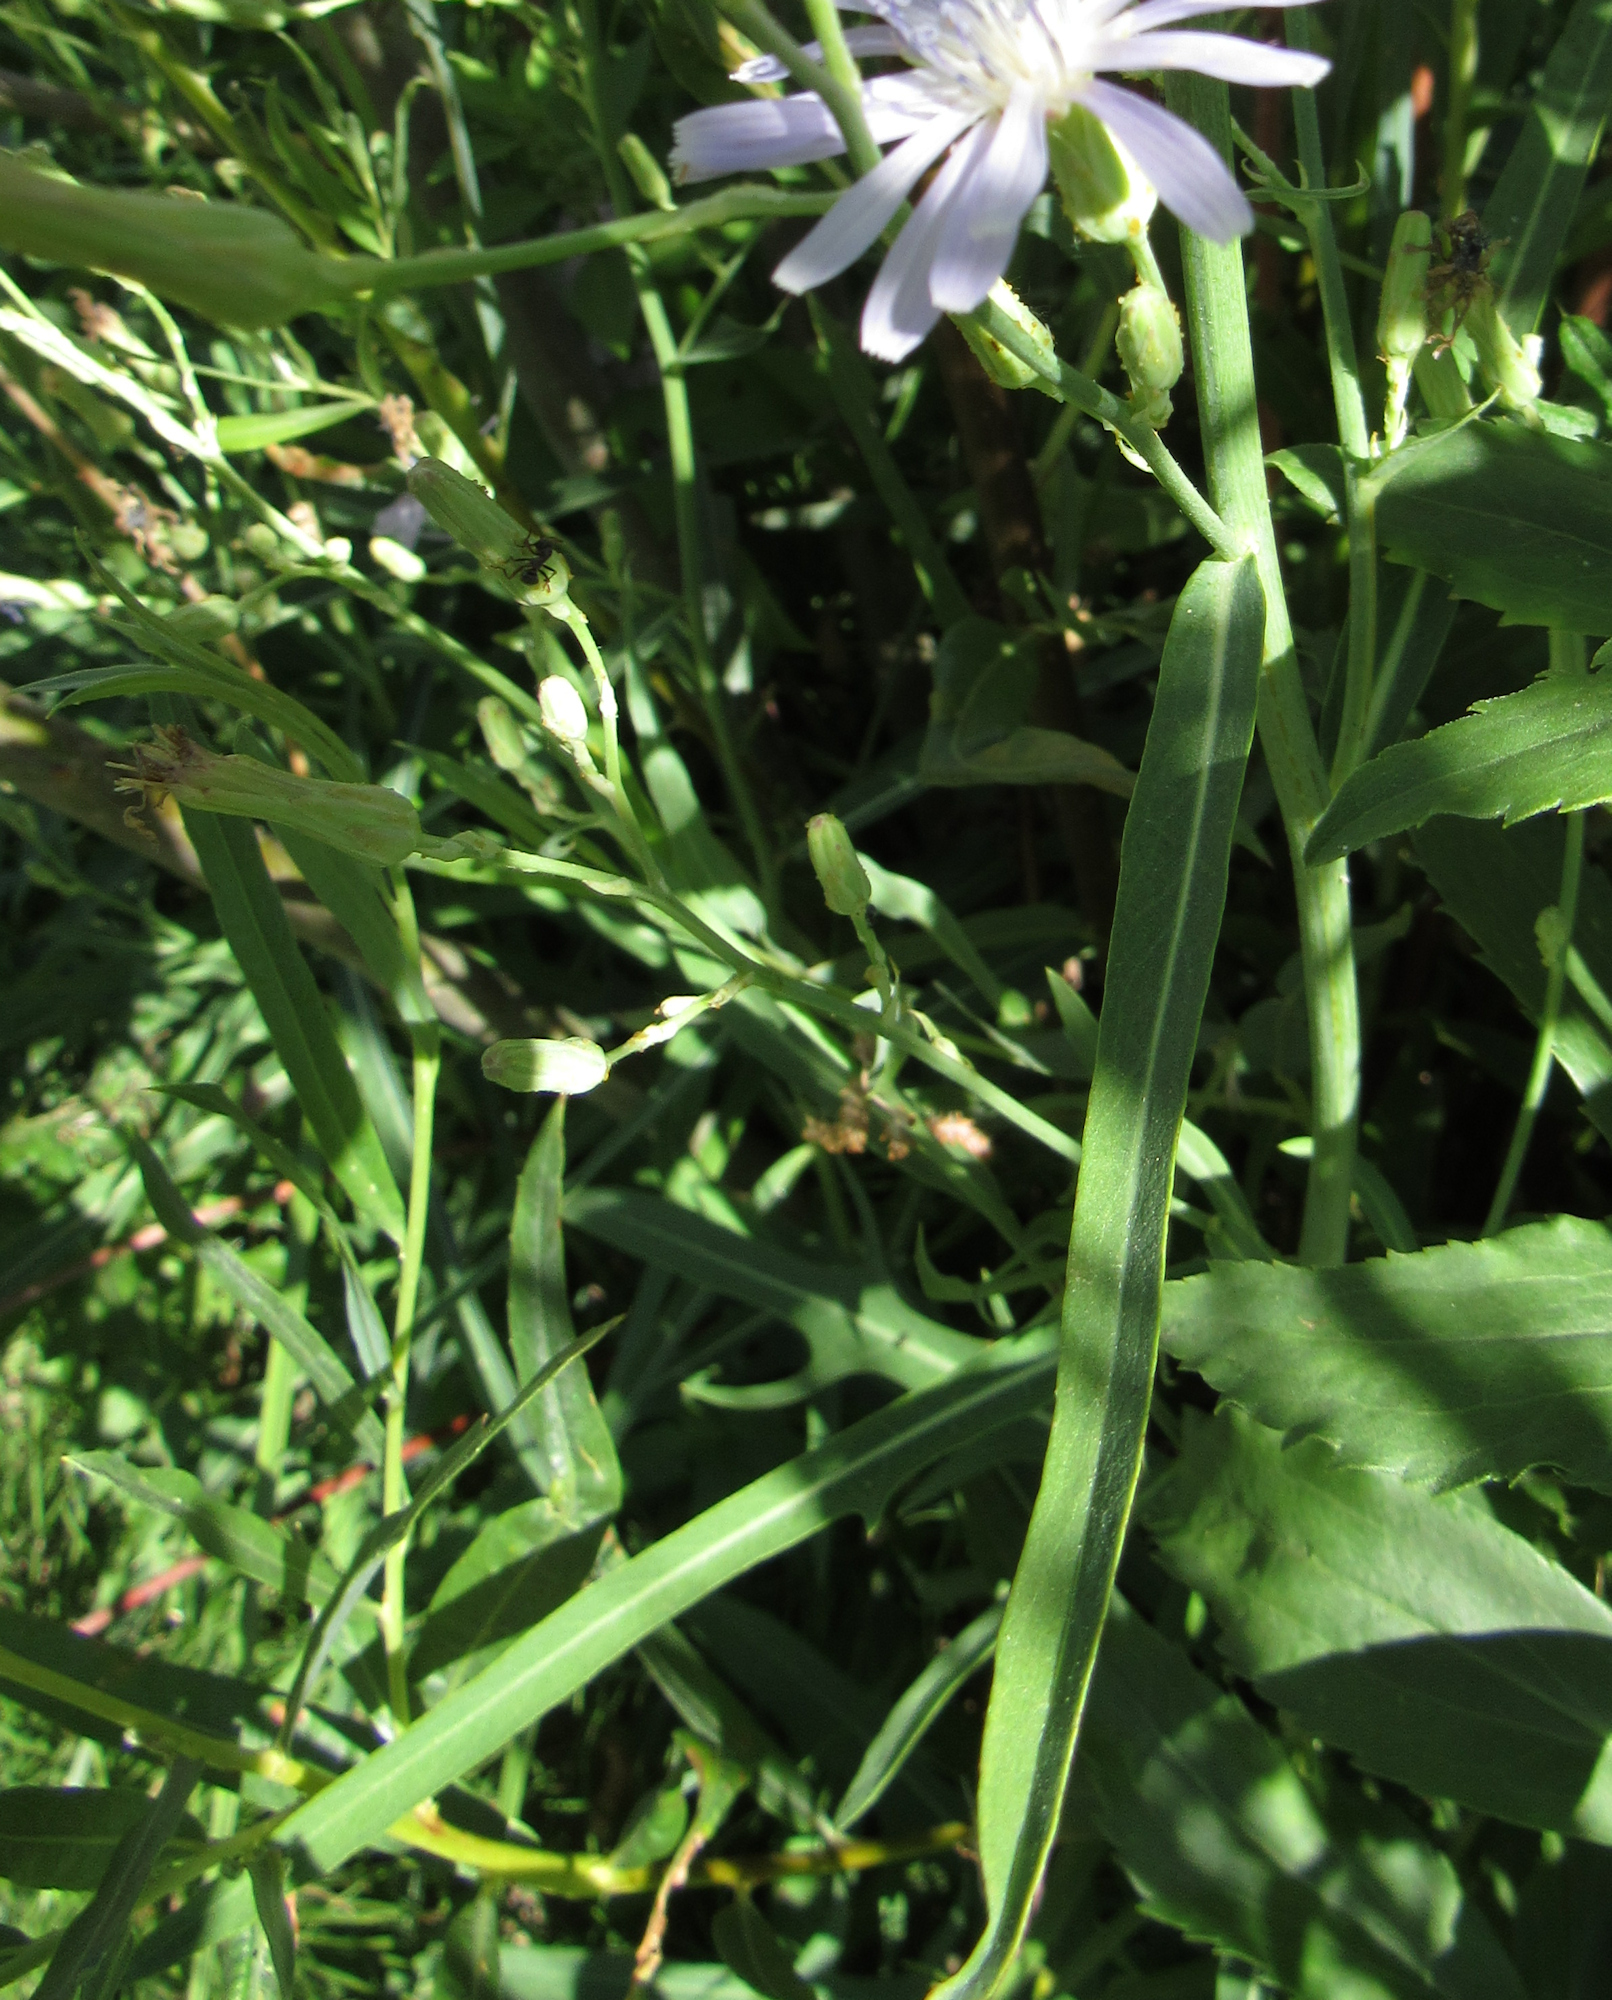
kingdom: Plantae
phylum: Tracheophyta
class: Magnoliopsida
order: Asterales
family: Asteraceae
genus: Lactuca
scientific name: Lactuca pulchella
